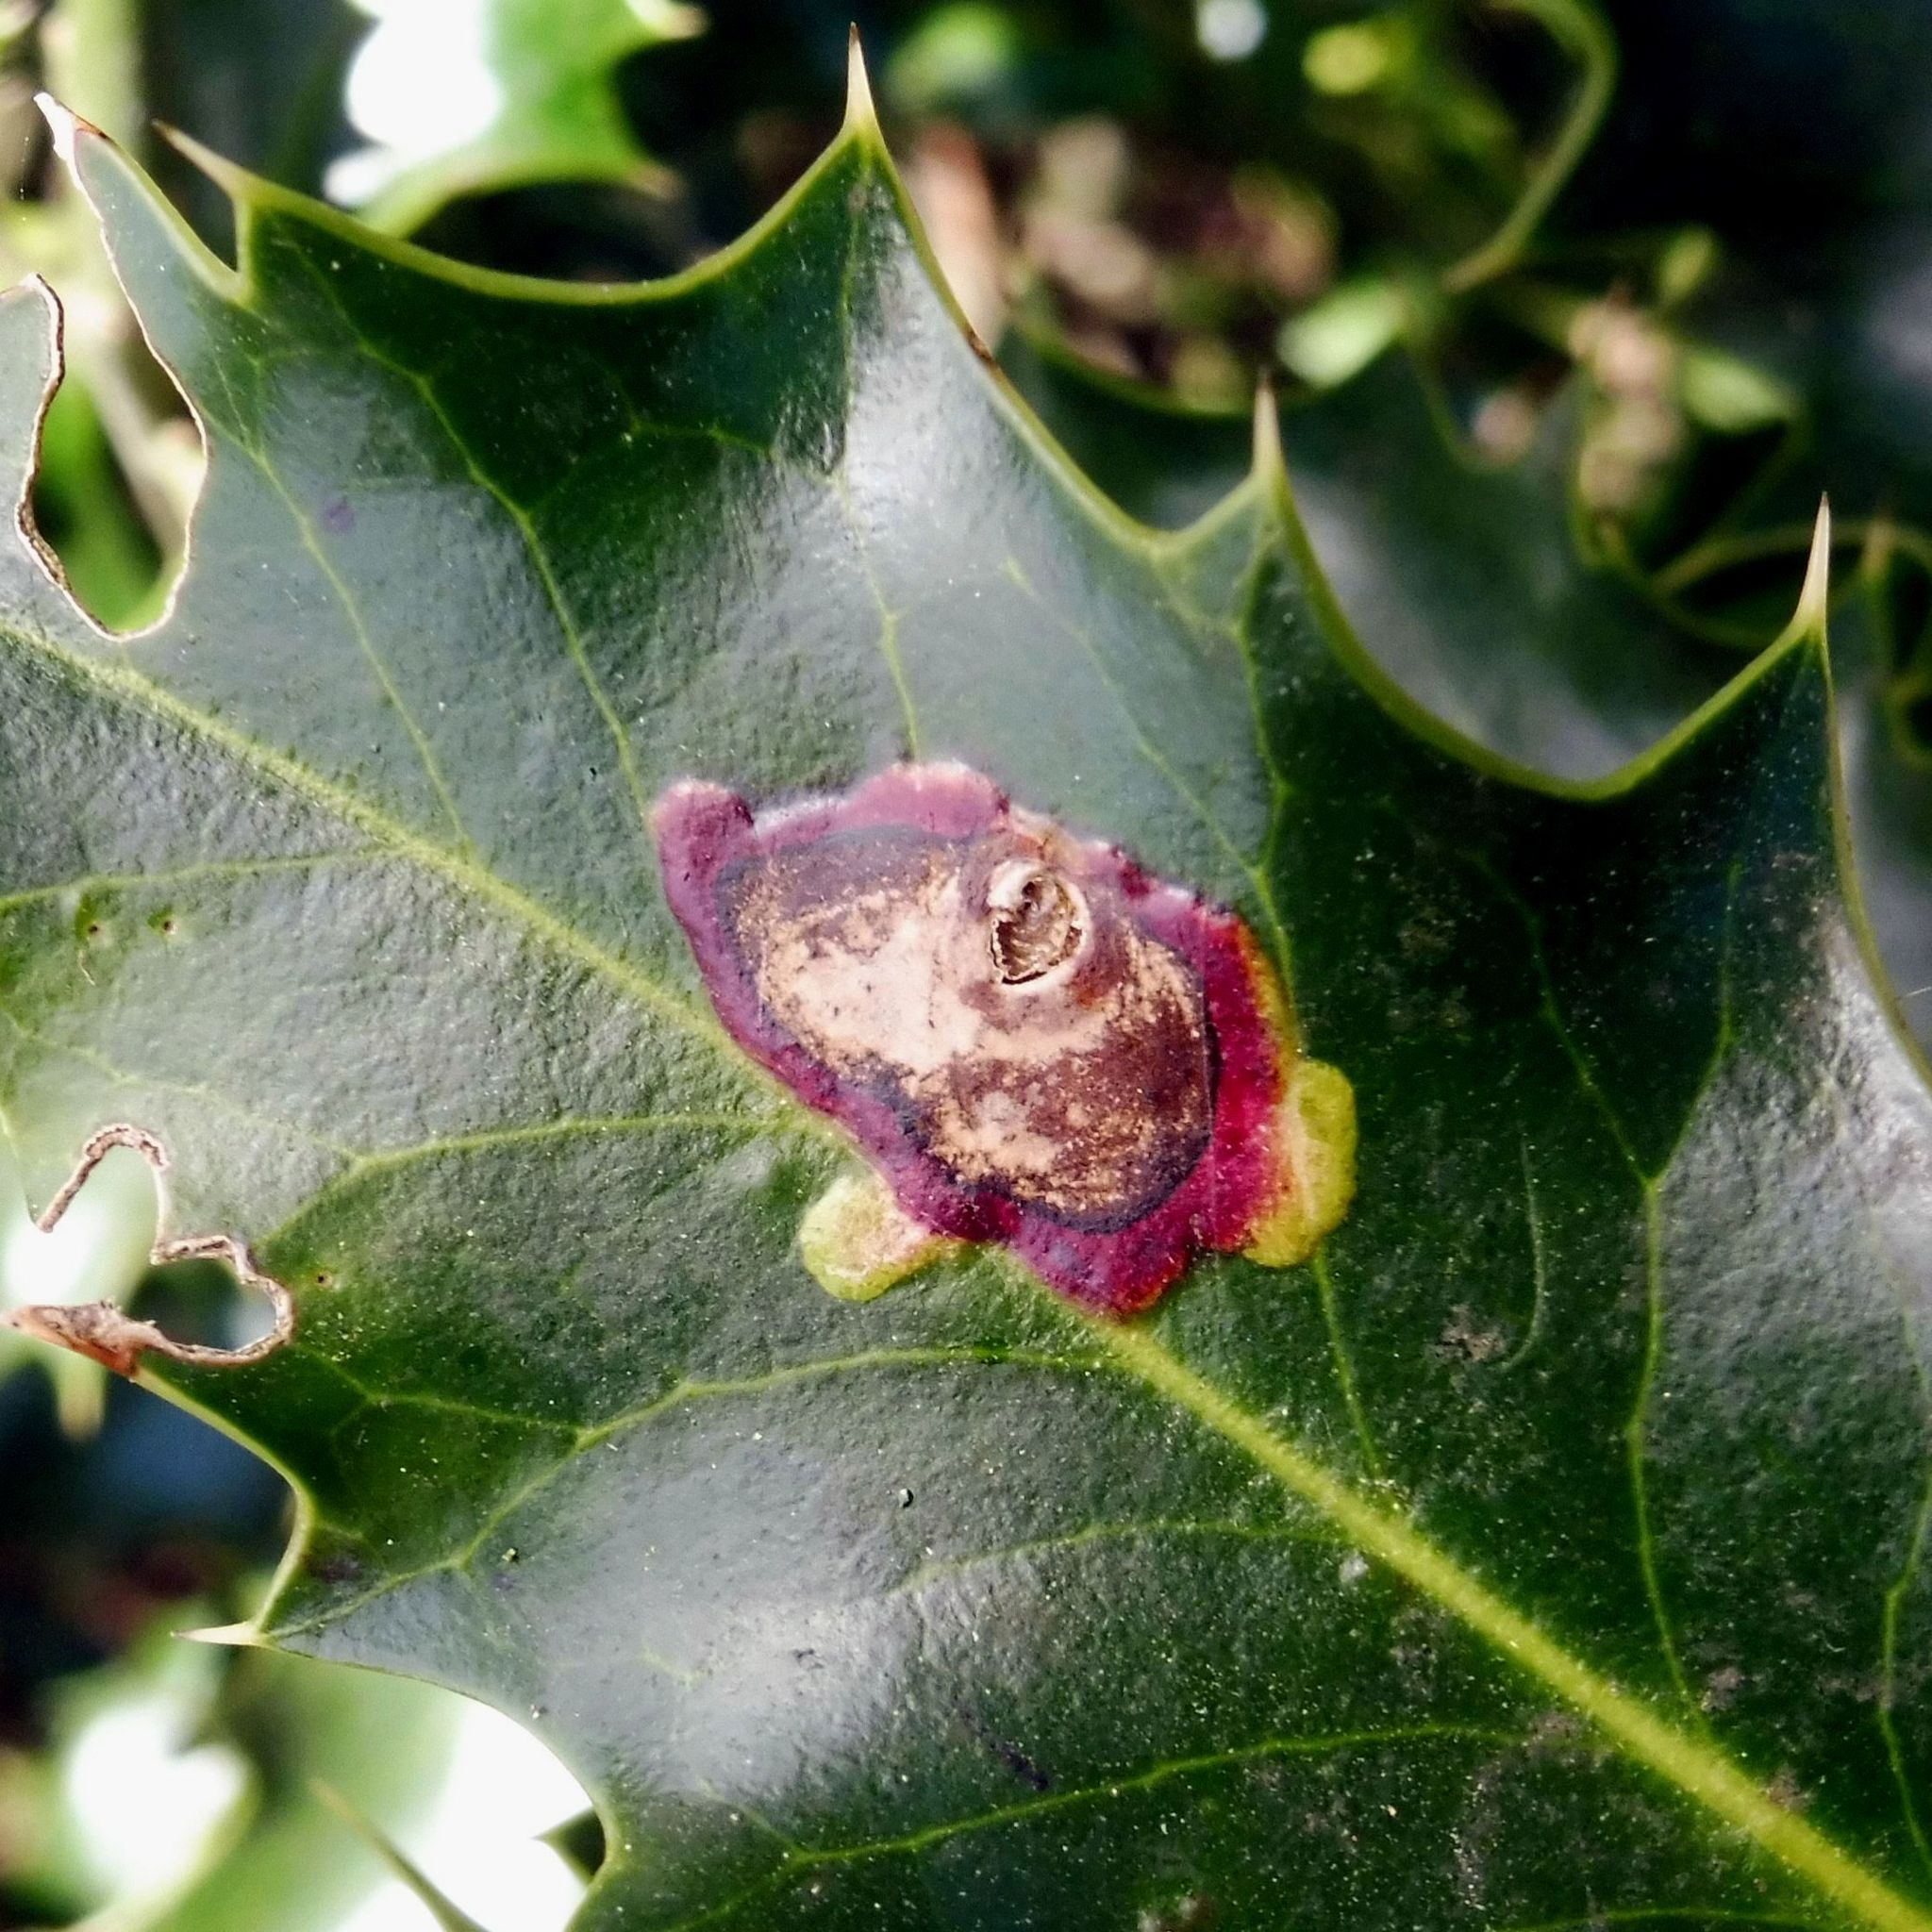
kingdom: Animalia
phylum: Arthropoda
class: Insecta
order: Diptera
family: Agromyzidae
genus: Phytomyza
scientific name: Phytomyza ilicis
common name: Holly leafminer
